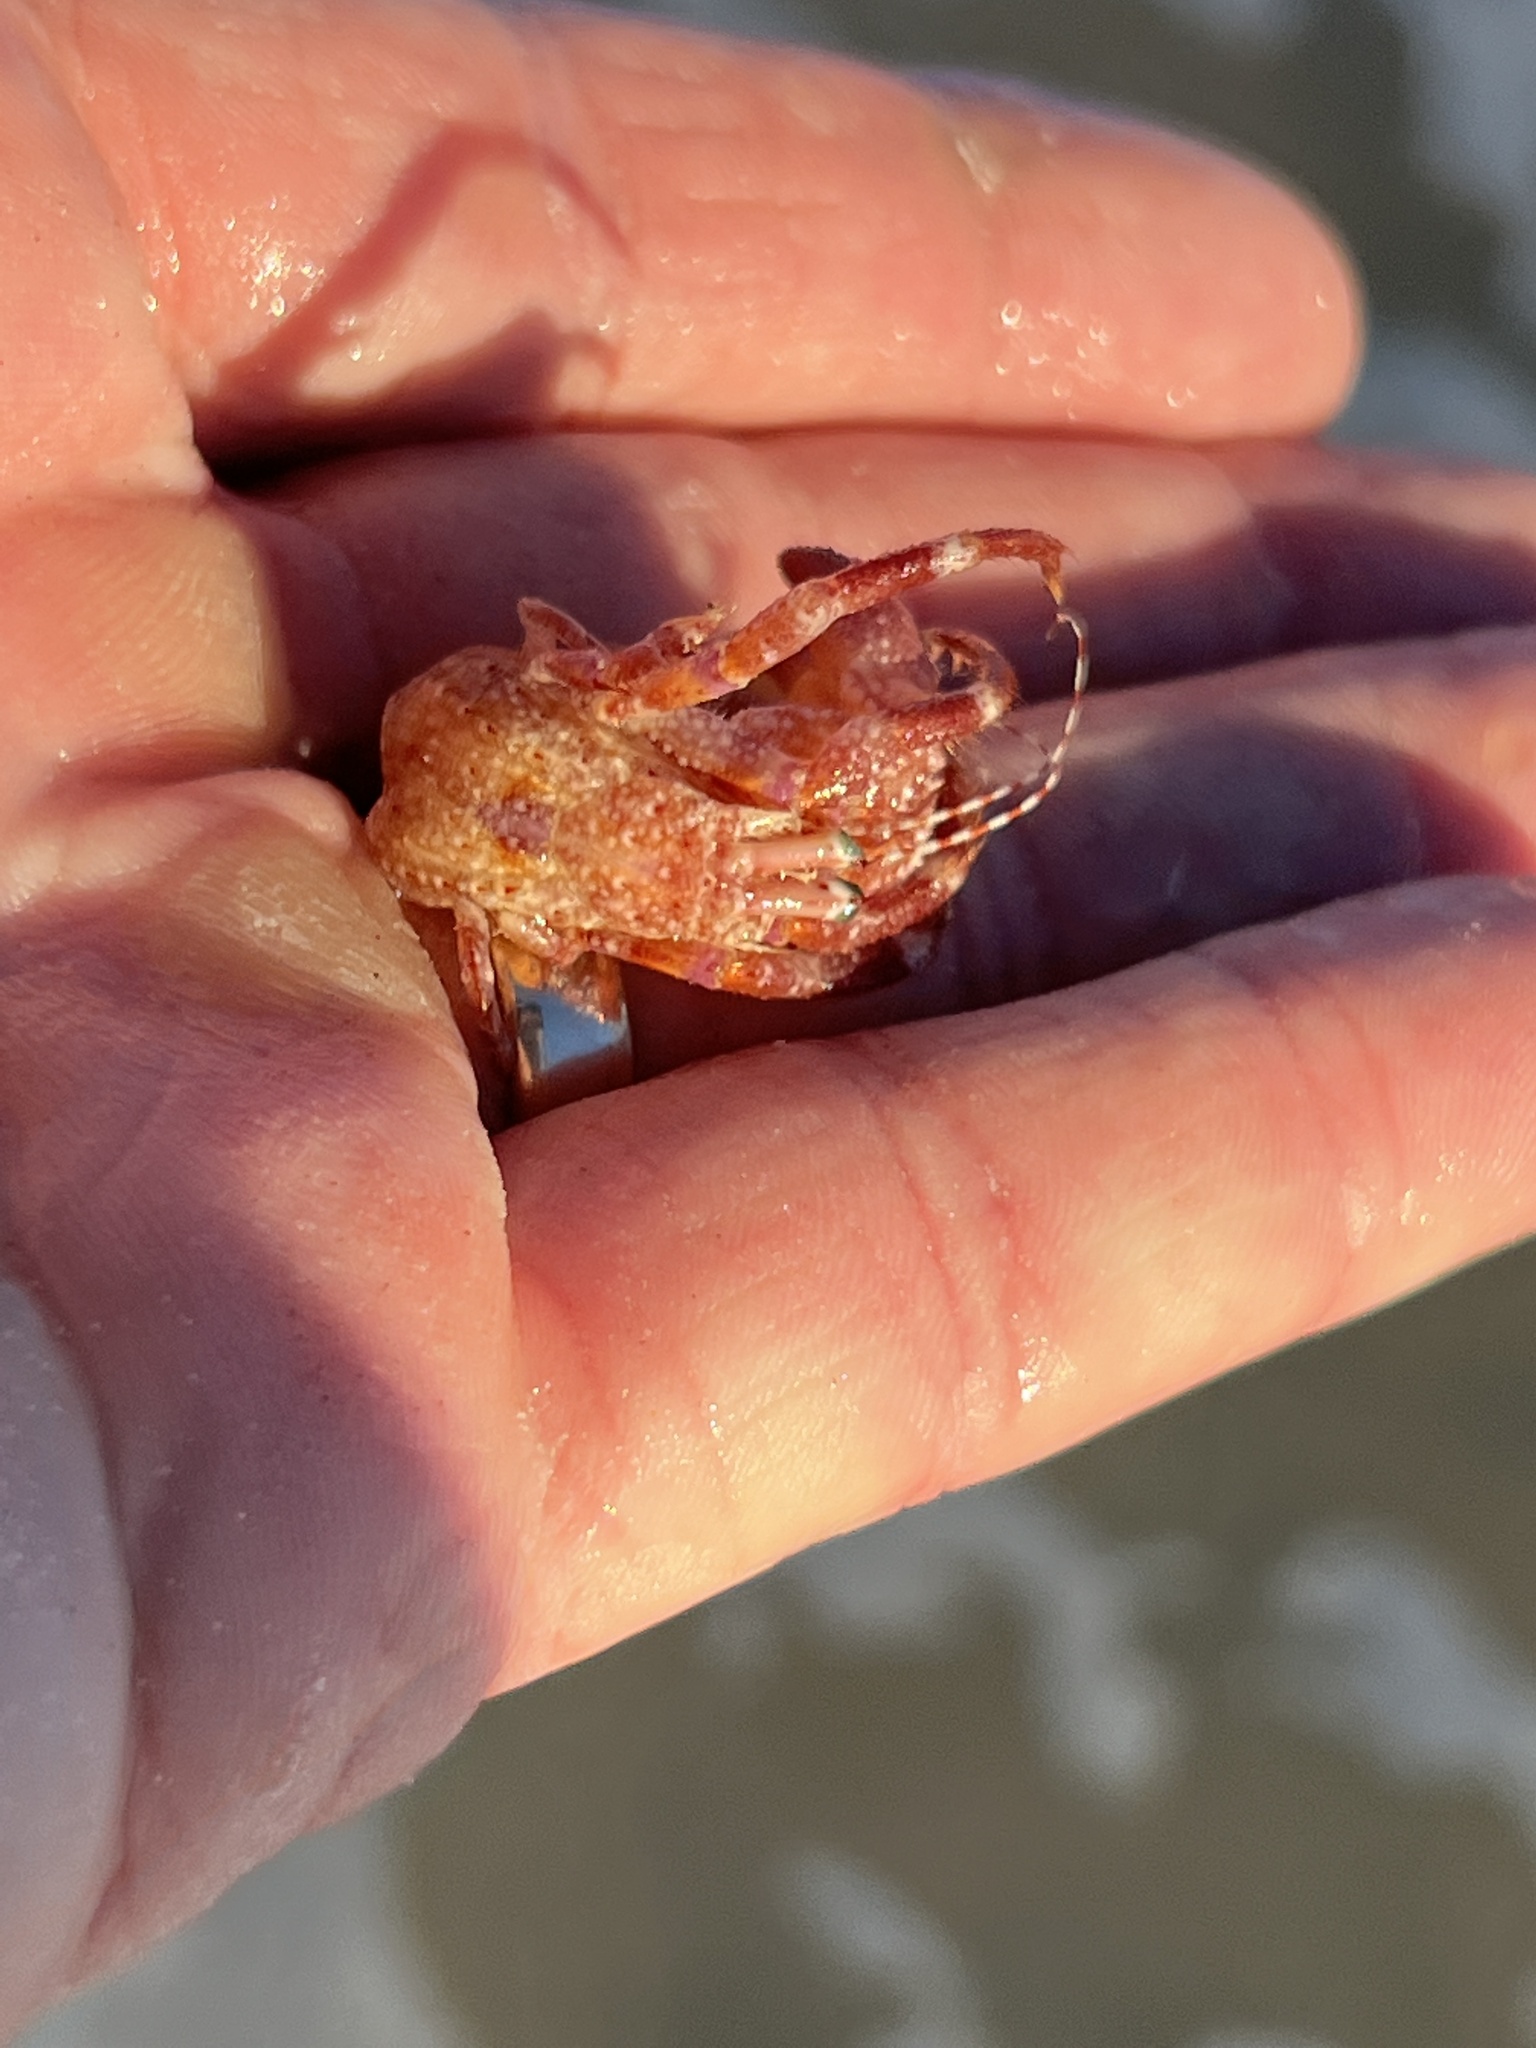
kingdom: Animalia
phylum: Arthropoda
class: Malacostraca
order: Decapoda
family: Diogenidae
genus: Petrochirus
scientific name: Petrochirus diogenes
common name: Giant hermit crab
